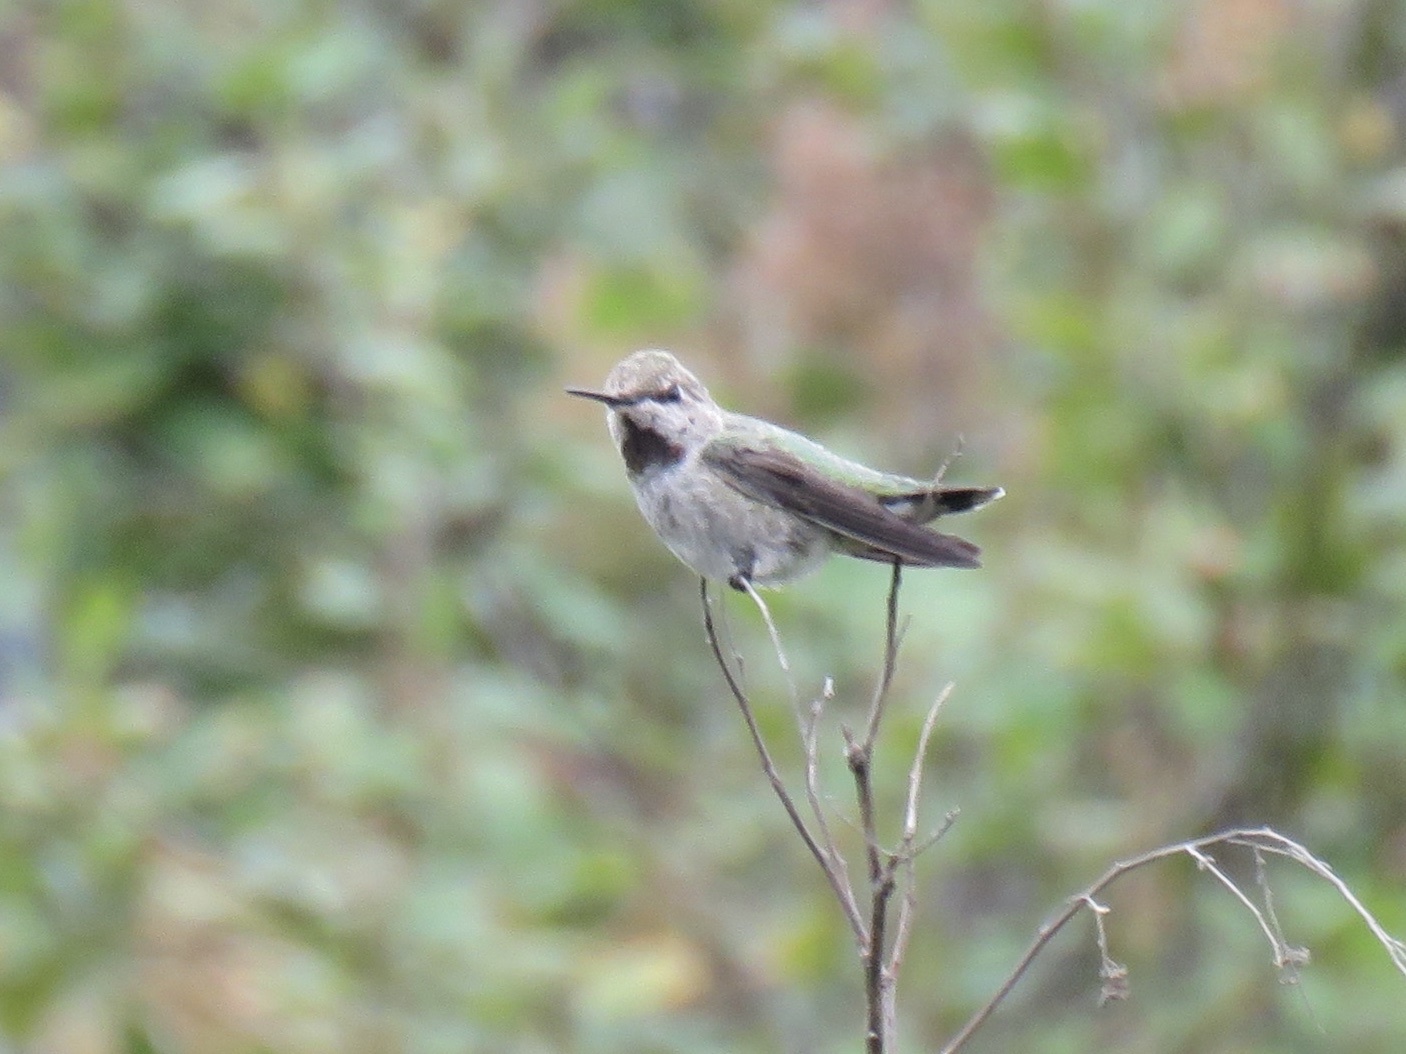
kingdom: Animalia
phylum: Chordata
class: Aves
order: Apodiformes
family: Trochilidae
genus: Calypte
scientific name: Calypte anna
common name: Anna's hummingbird
